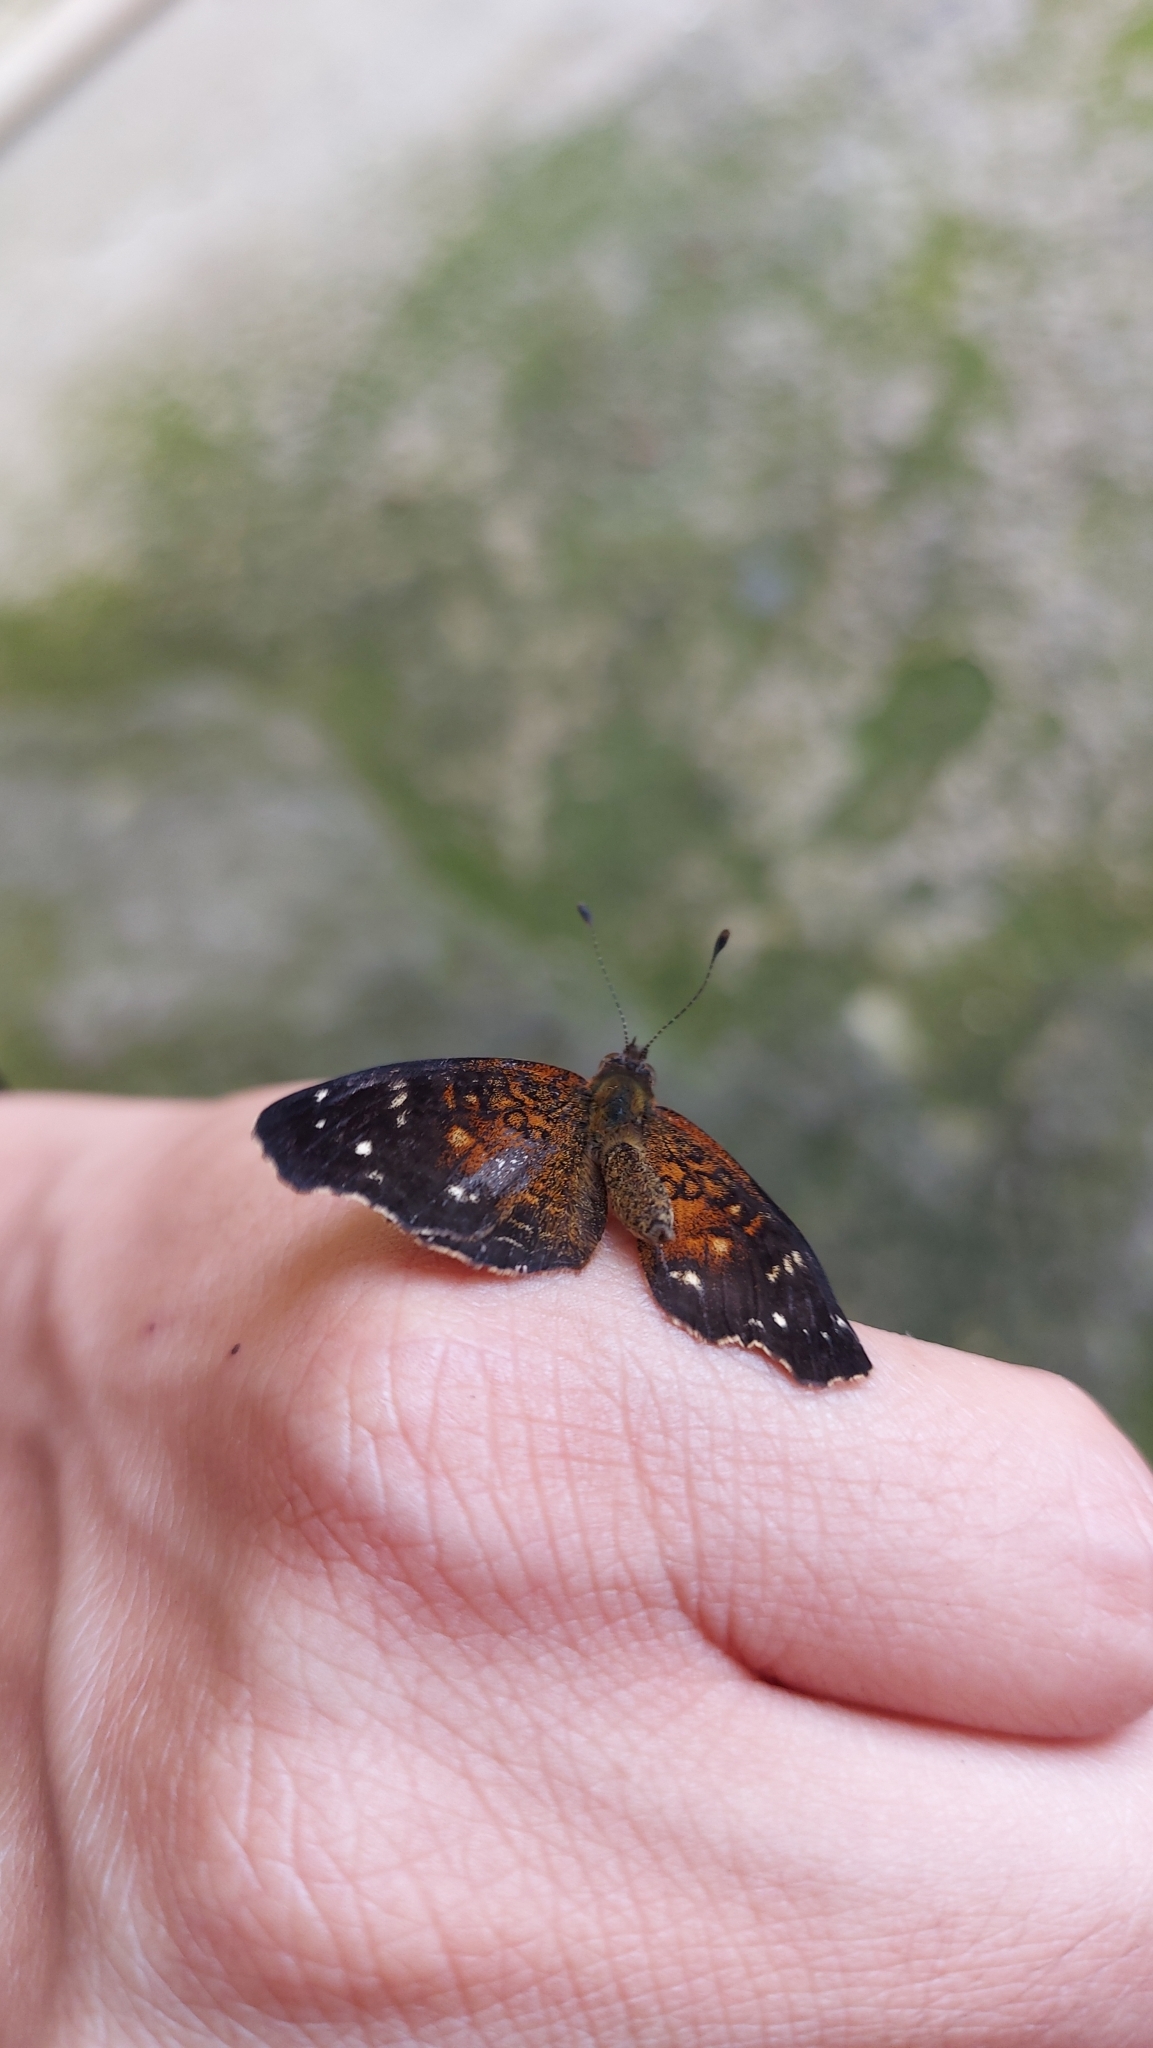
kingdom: Animalia
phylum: Arthropoda
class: Insecta
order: Lepidoptera
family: Nymphalidae
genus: Anthanassa
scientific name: Anthanassa atronia
